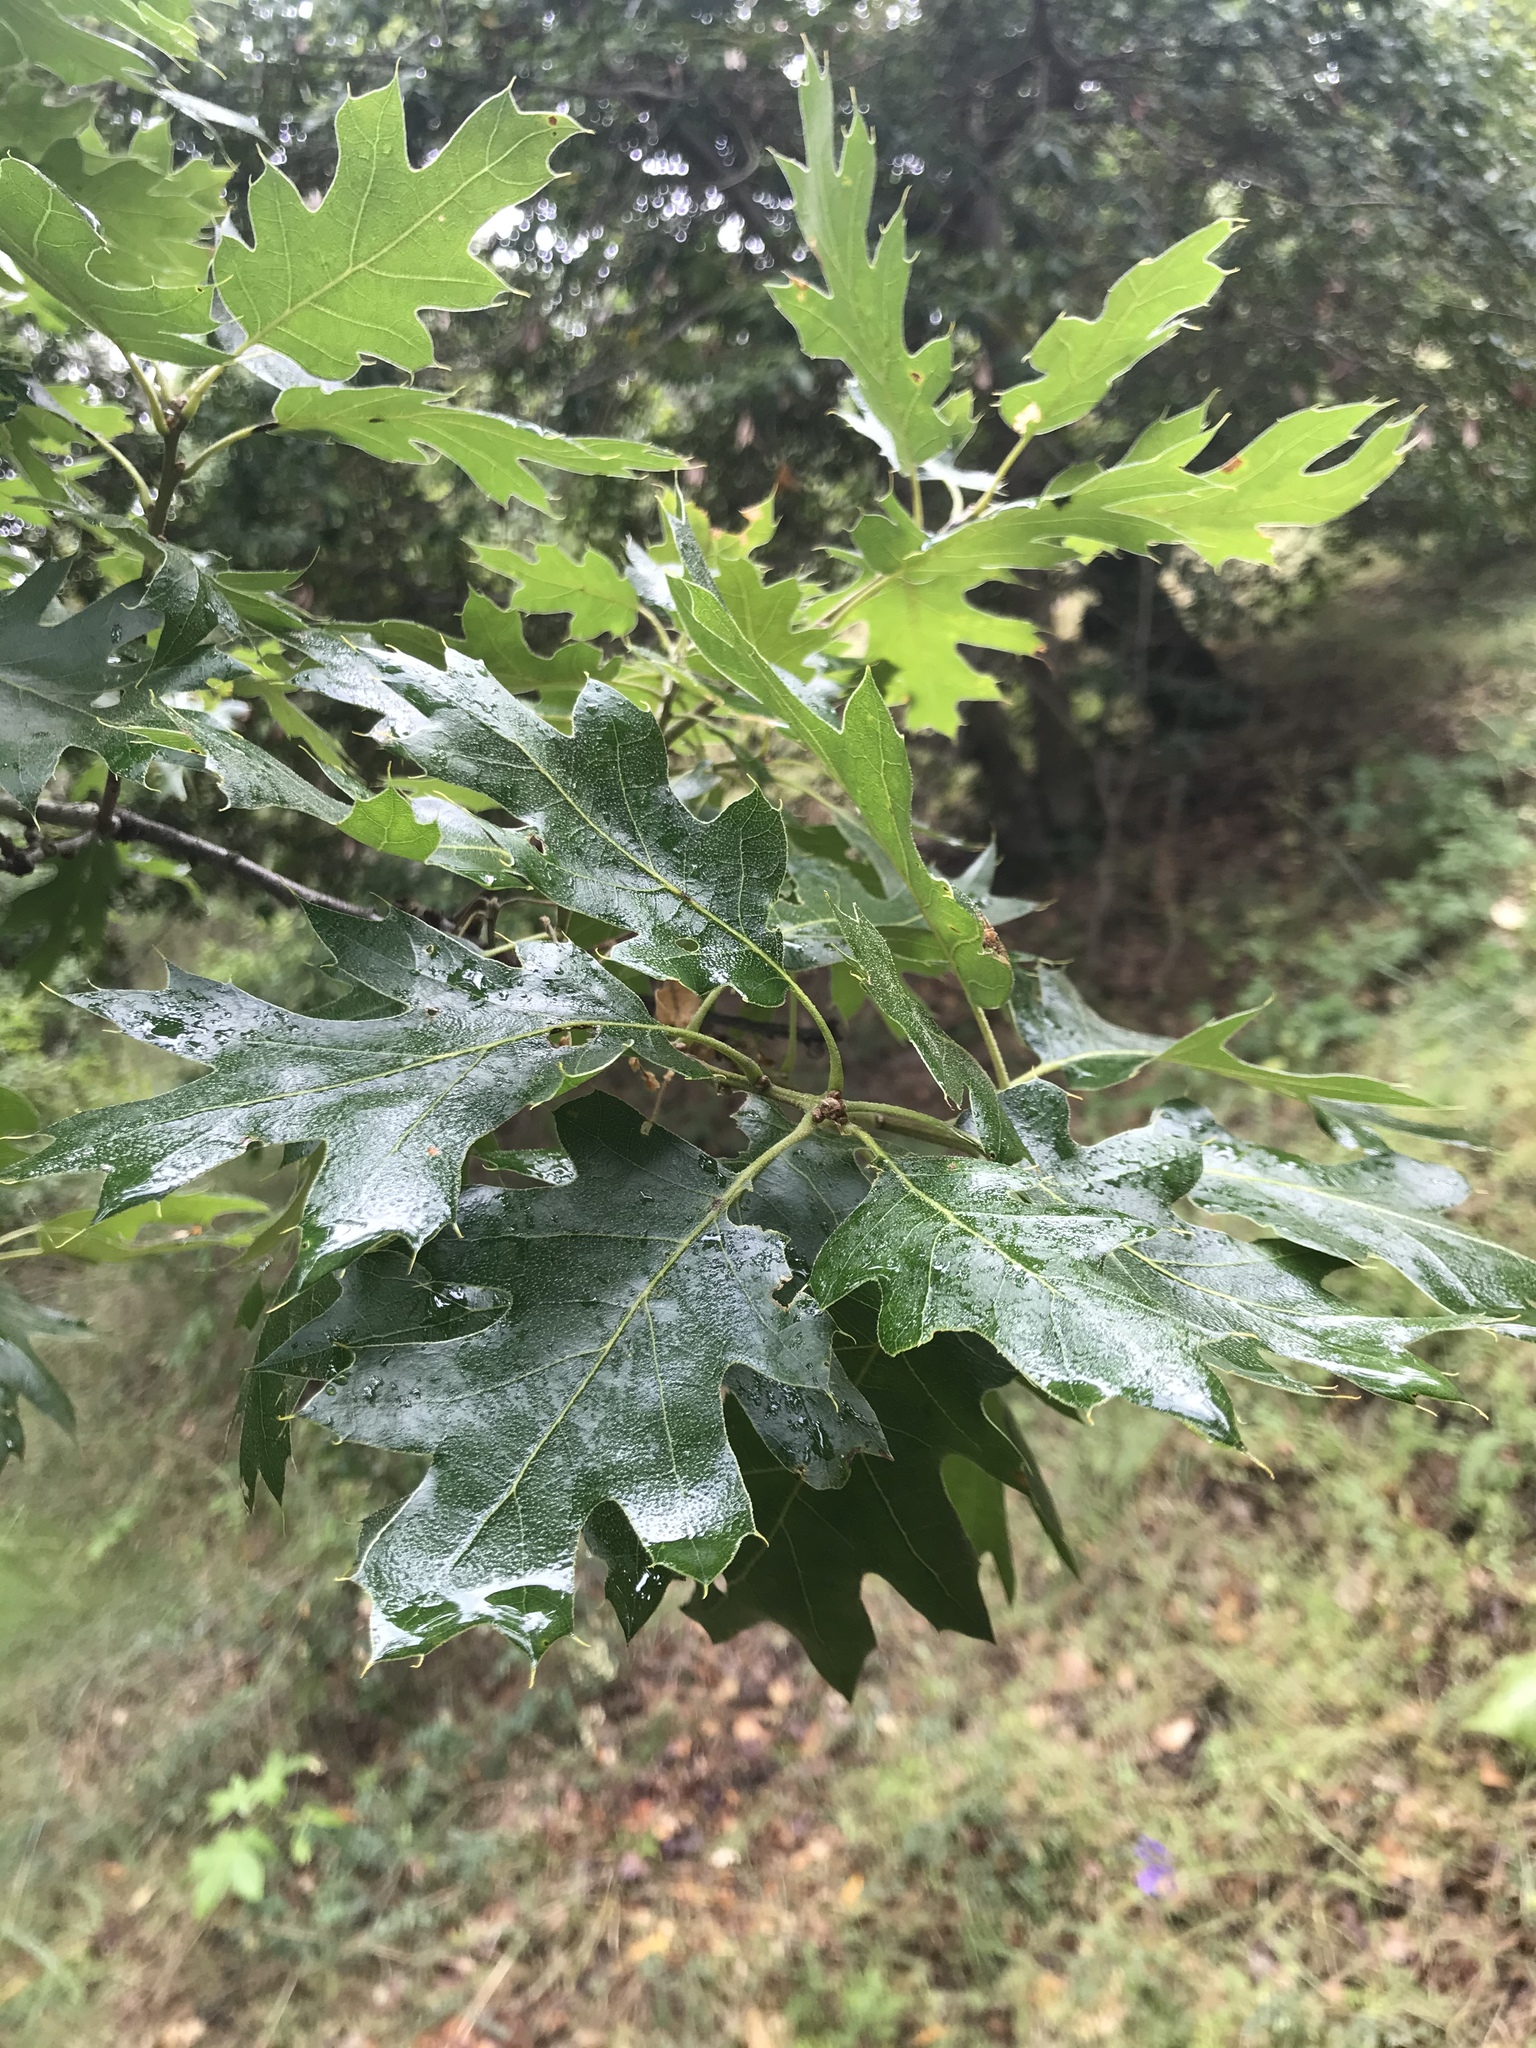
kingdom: Plantae
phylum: Tracheophyta
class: Magnoliopsida
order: Fagales
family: Fagaceae
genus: Quercus
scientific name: Quercus kelloggii
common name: California black oak
